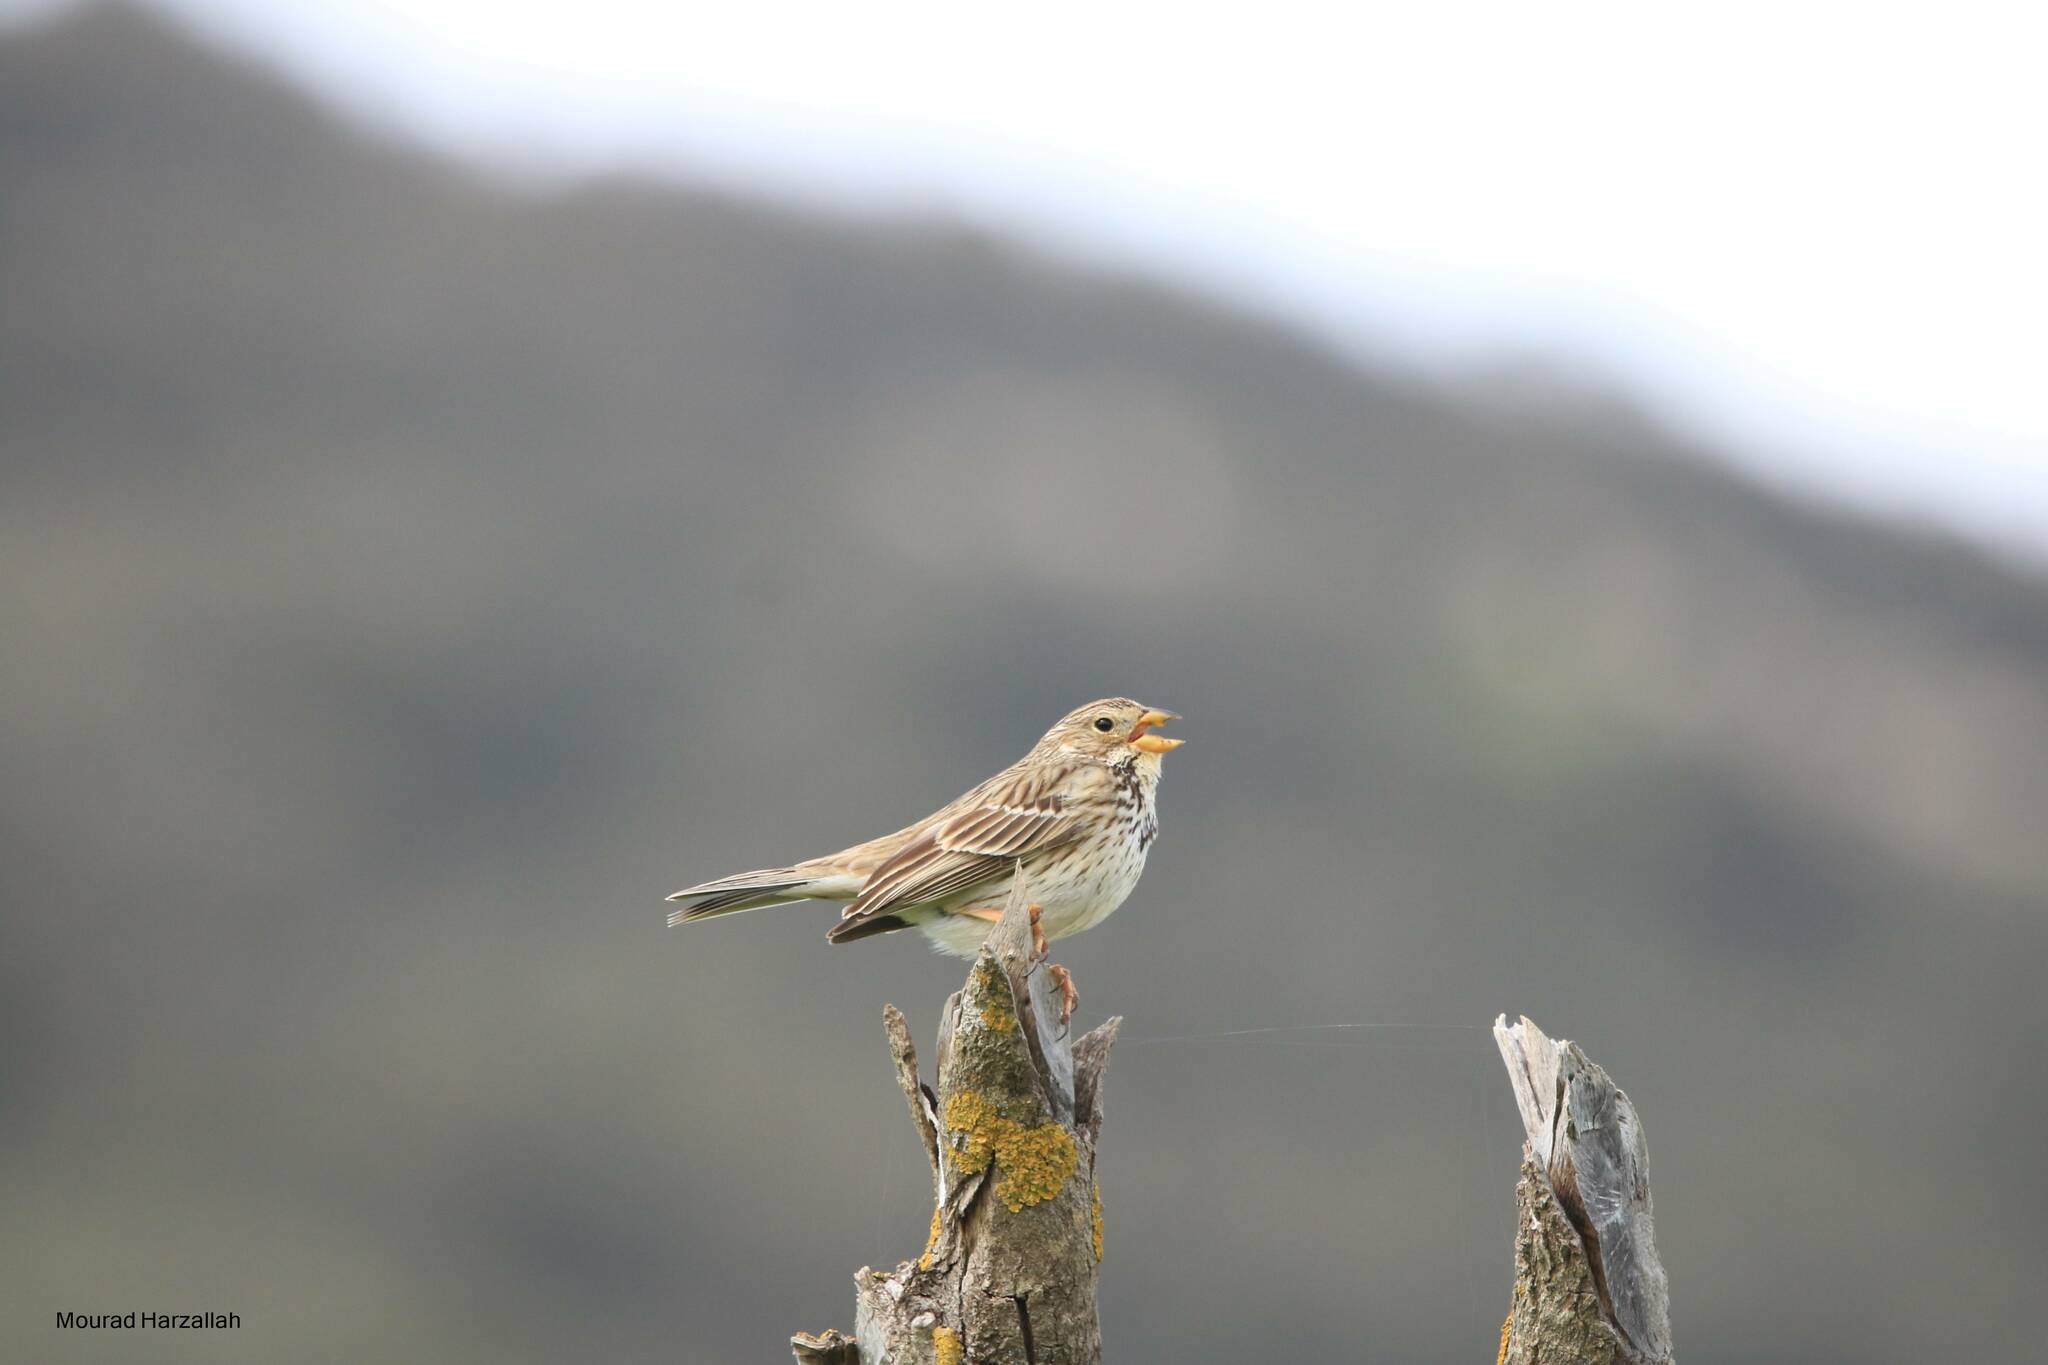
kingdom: Animalia
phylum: Chordata
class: Aves
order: Passeriformes
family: Emberizidae
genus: Emberiza
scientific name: Emberiza calandra
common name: Corn bunting
